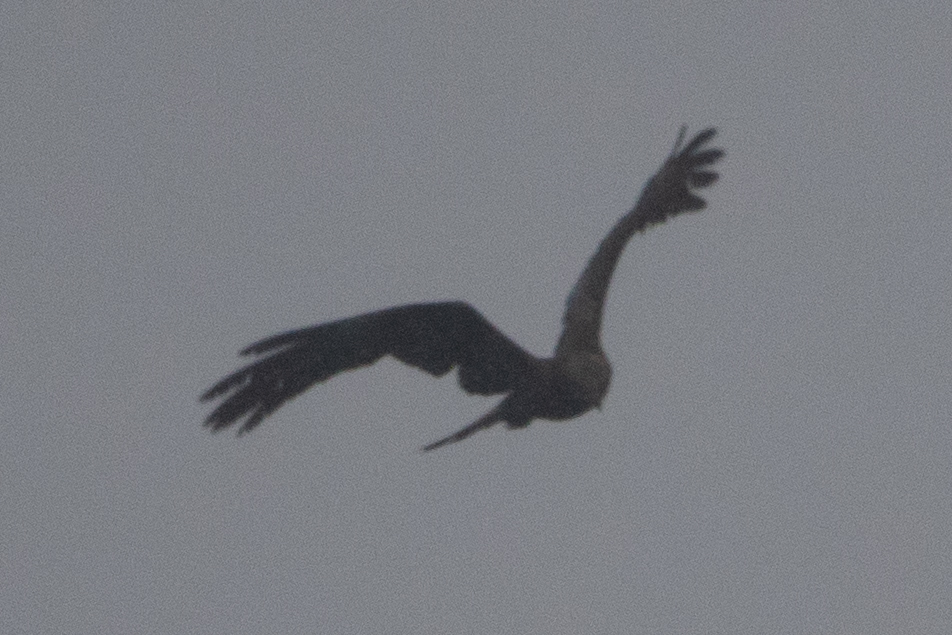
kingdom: Animalia
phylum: Chordata
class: Aves
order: Accipitriformes
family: Accipitridae
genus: Circus
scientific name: Circus aeruginosus
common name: Western marsh harrier
